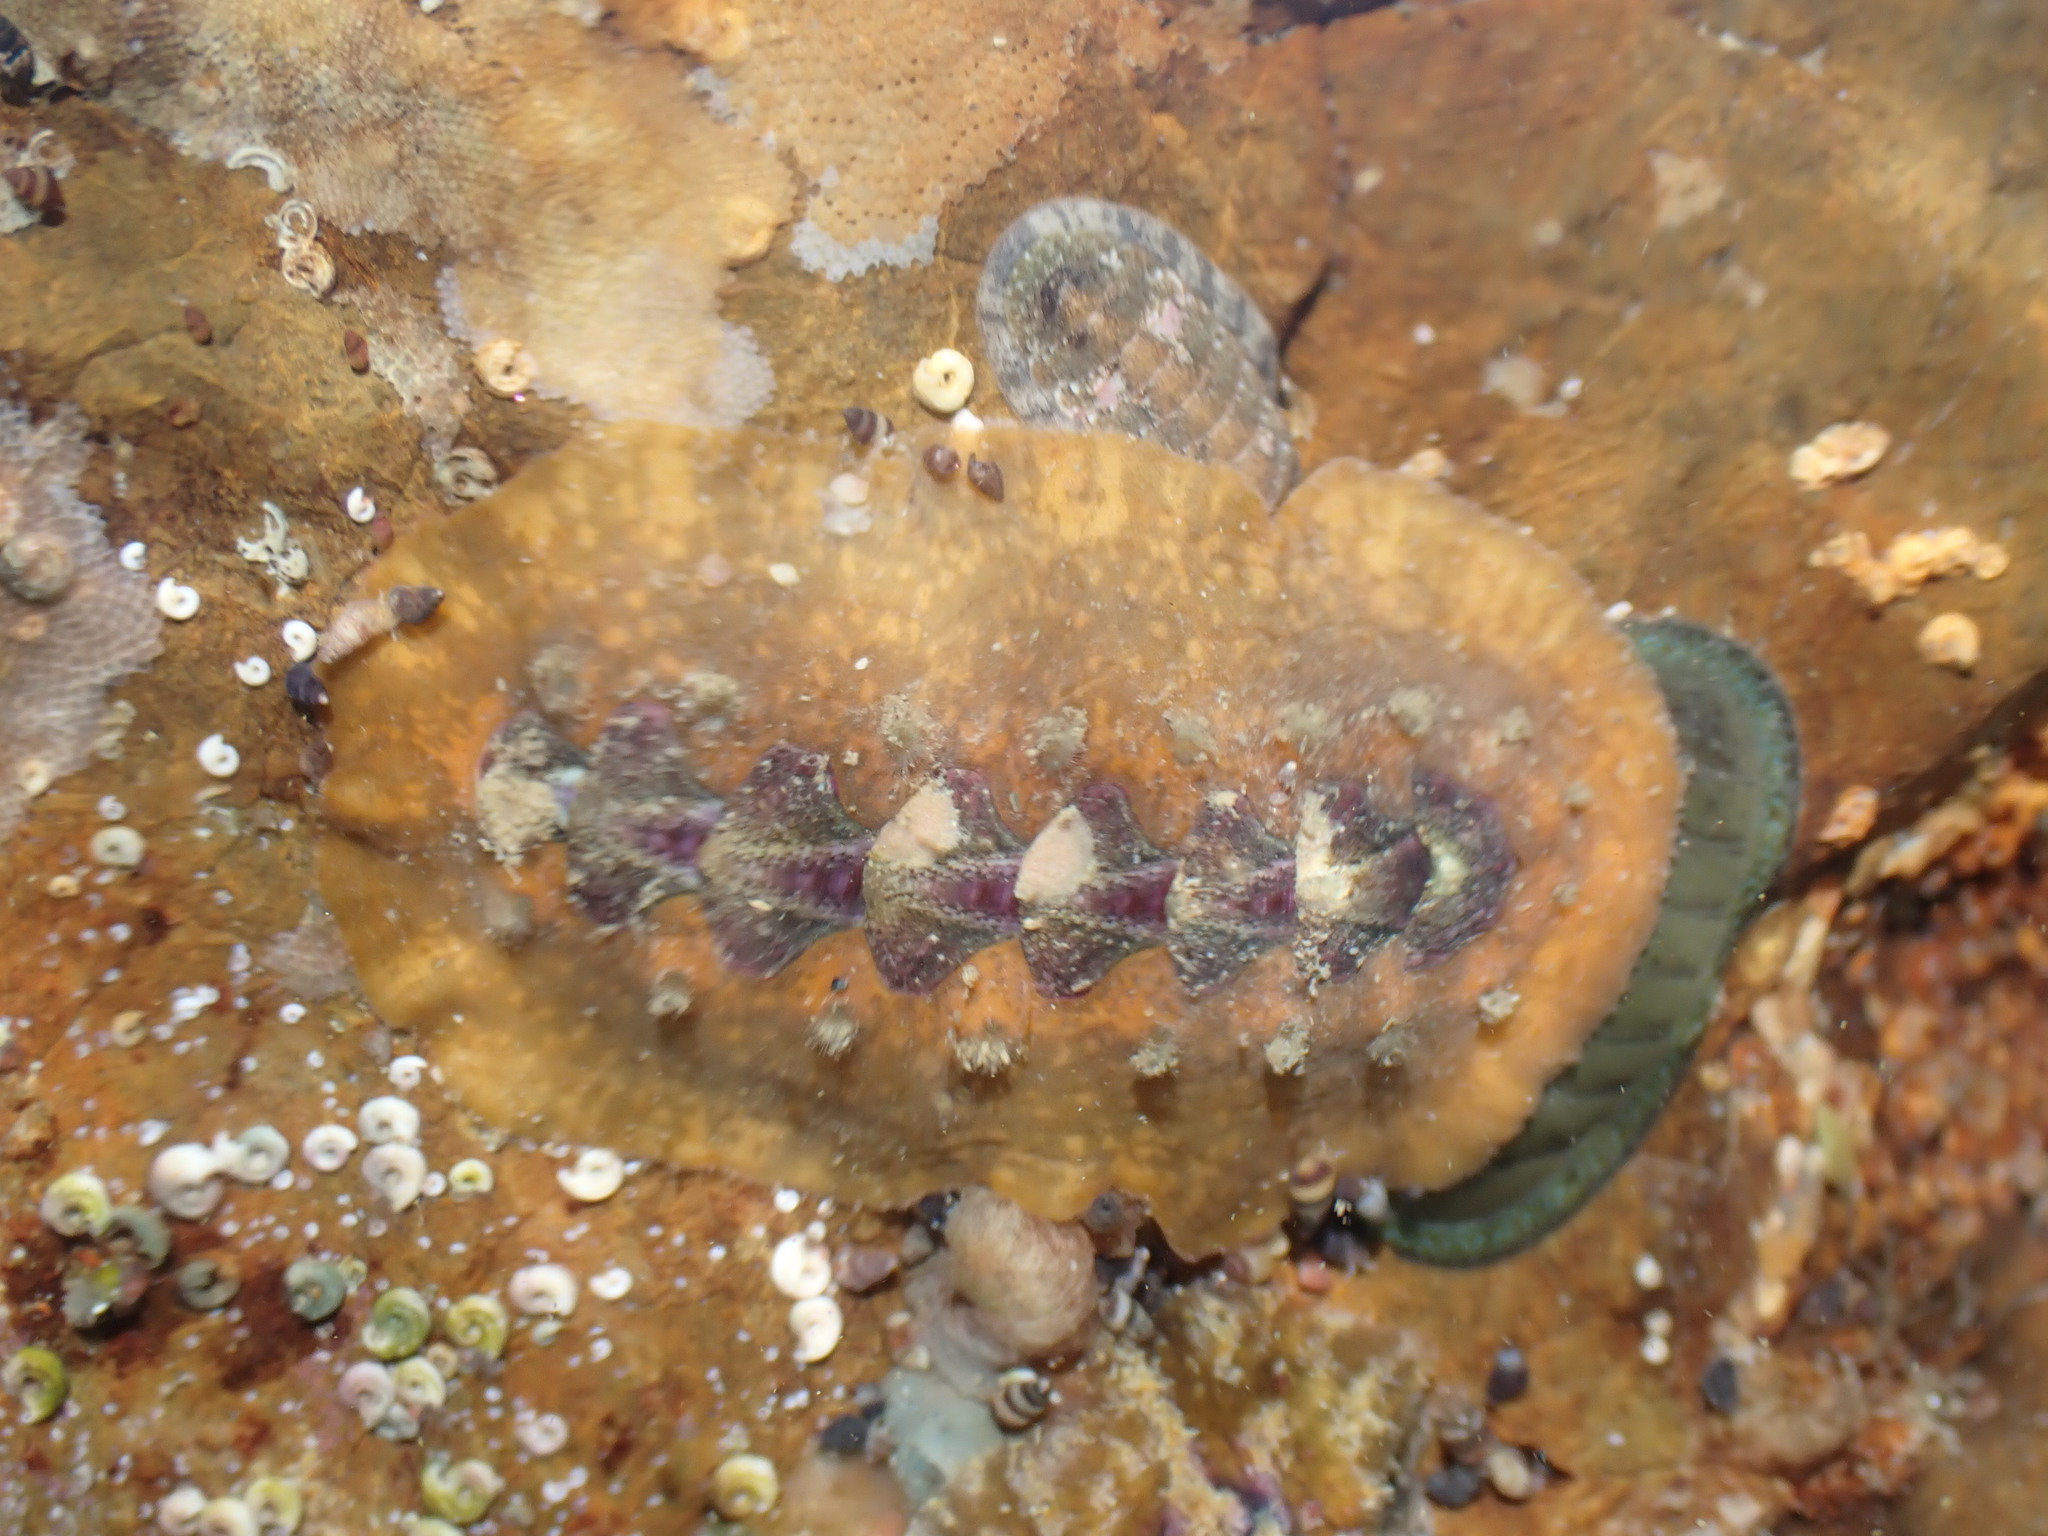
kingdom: Animalia
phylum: Mollusca
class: Polyplacophora
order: Chitonida
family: Acanthochitonidae
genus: Notoplax
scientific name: Notoplax violacea
